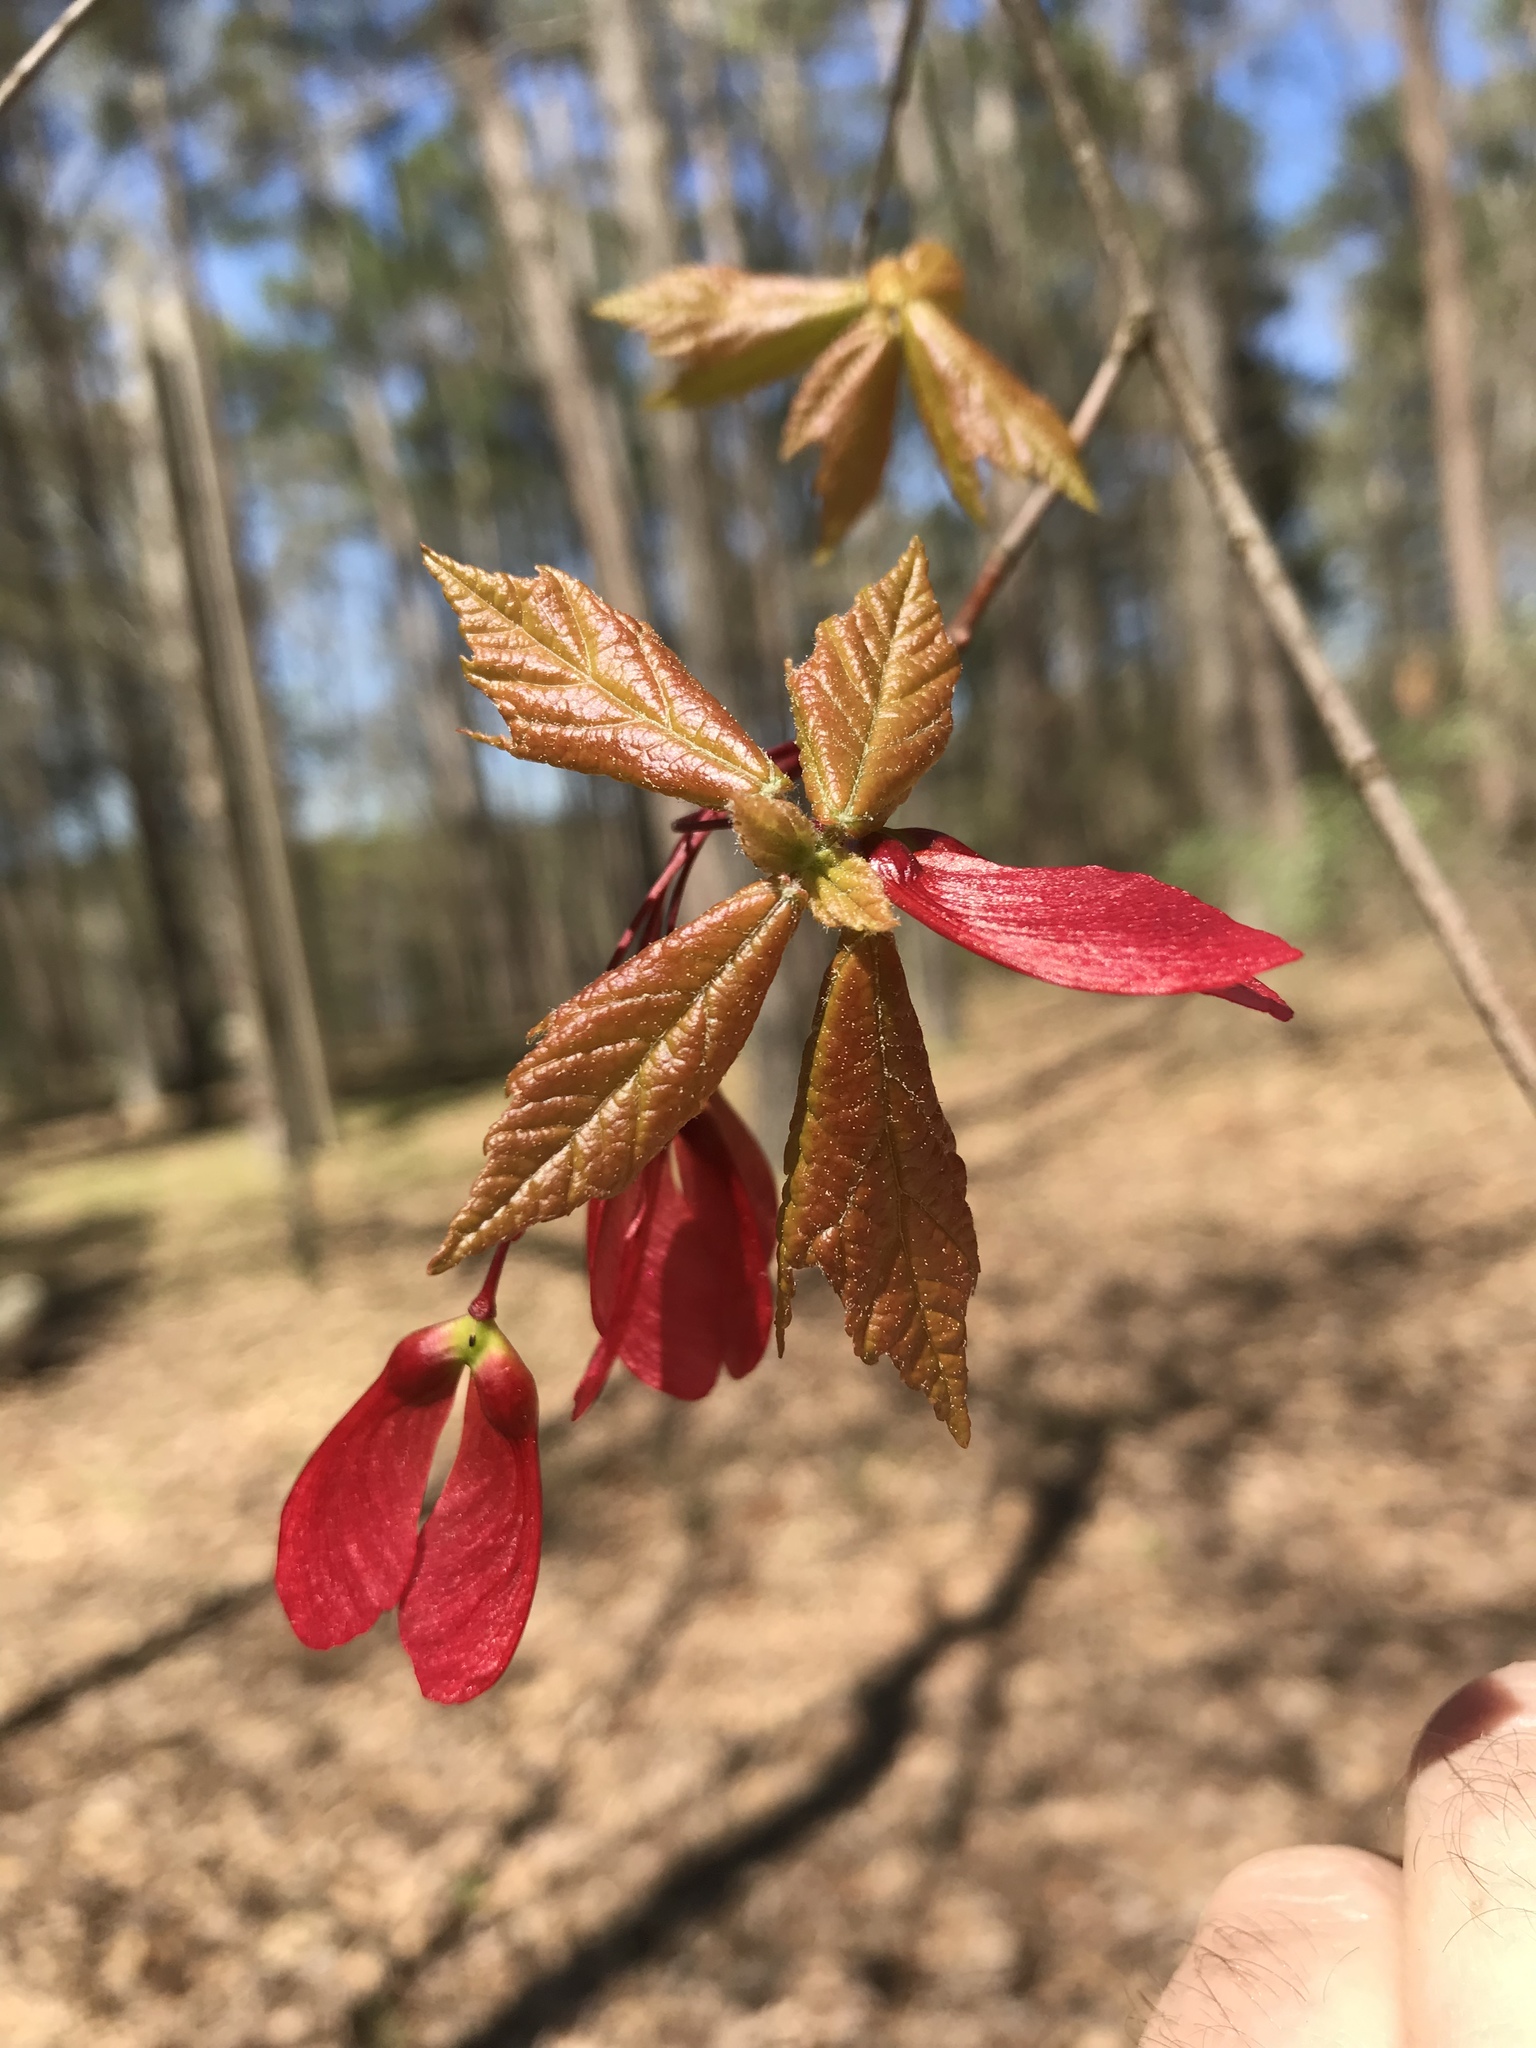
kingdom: Plantae
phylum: Tracheophyta
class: Magnoliopsida
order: Sapindales
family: Sapindaceae
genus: Acer
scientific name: Acer rubrum
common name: Red maple
